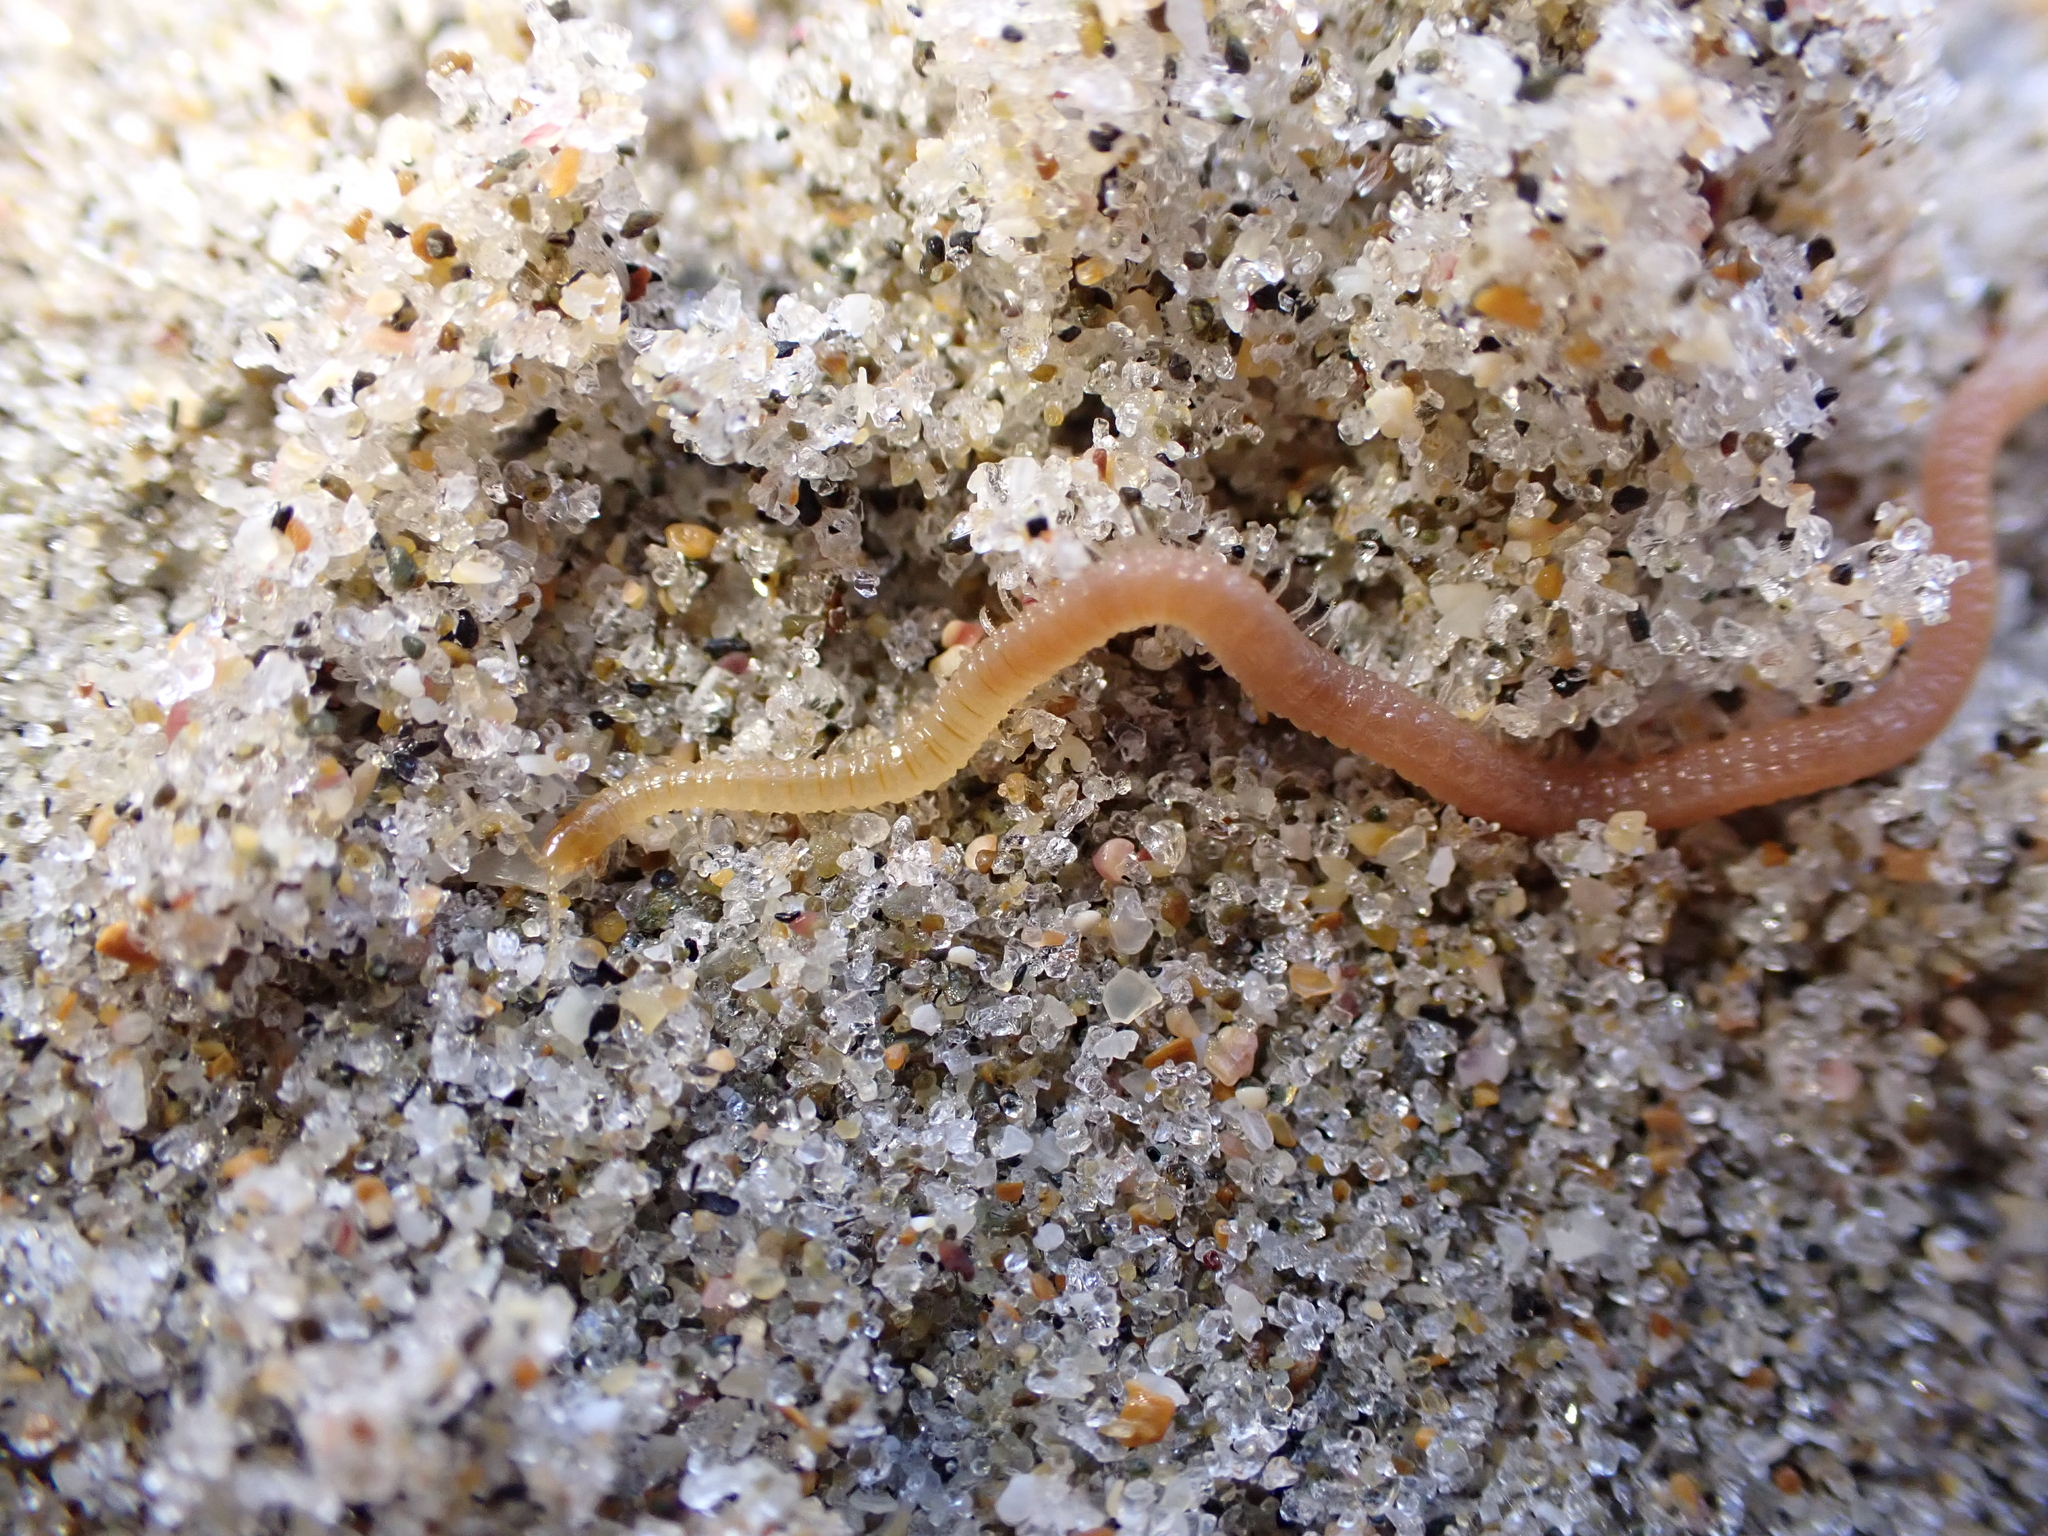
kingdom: Animalia
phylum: Arthropoda
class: Chilopoda
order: Geophilomorpha
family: Geophilidae
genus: Tuoba
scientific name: Tuoba xylophaga
